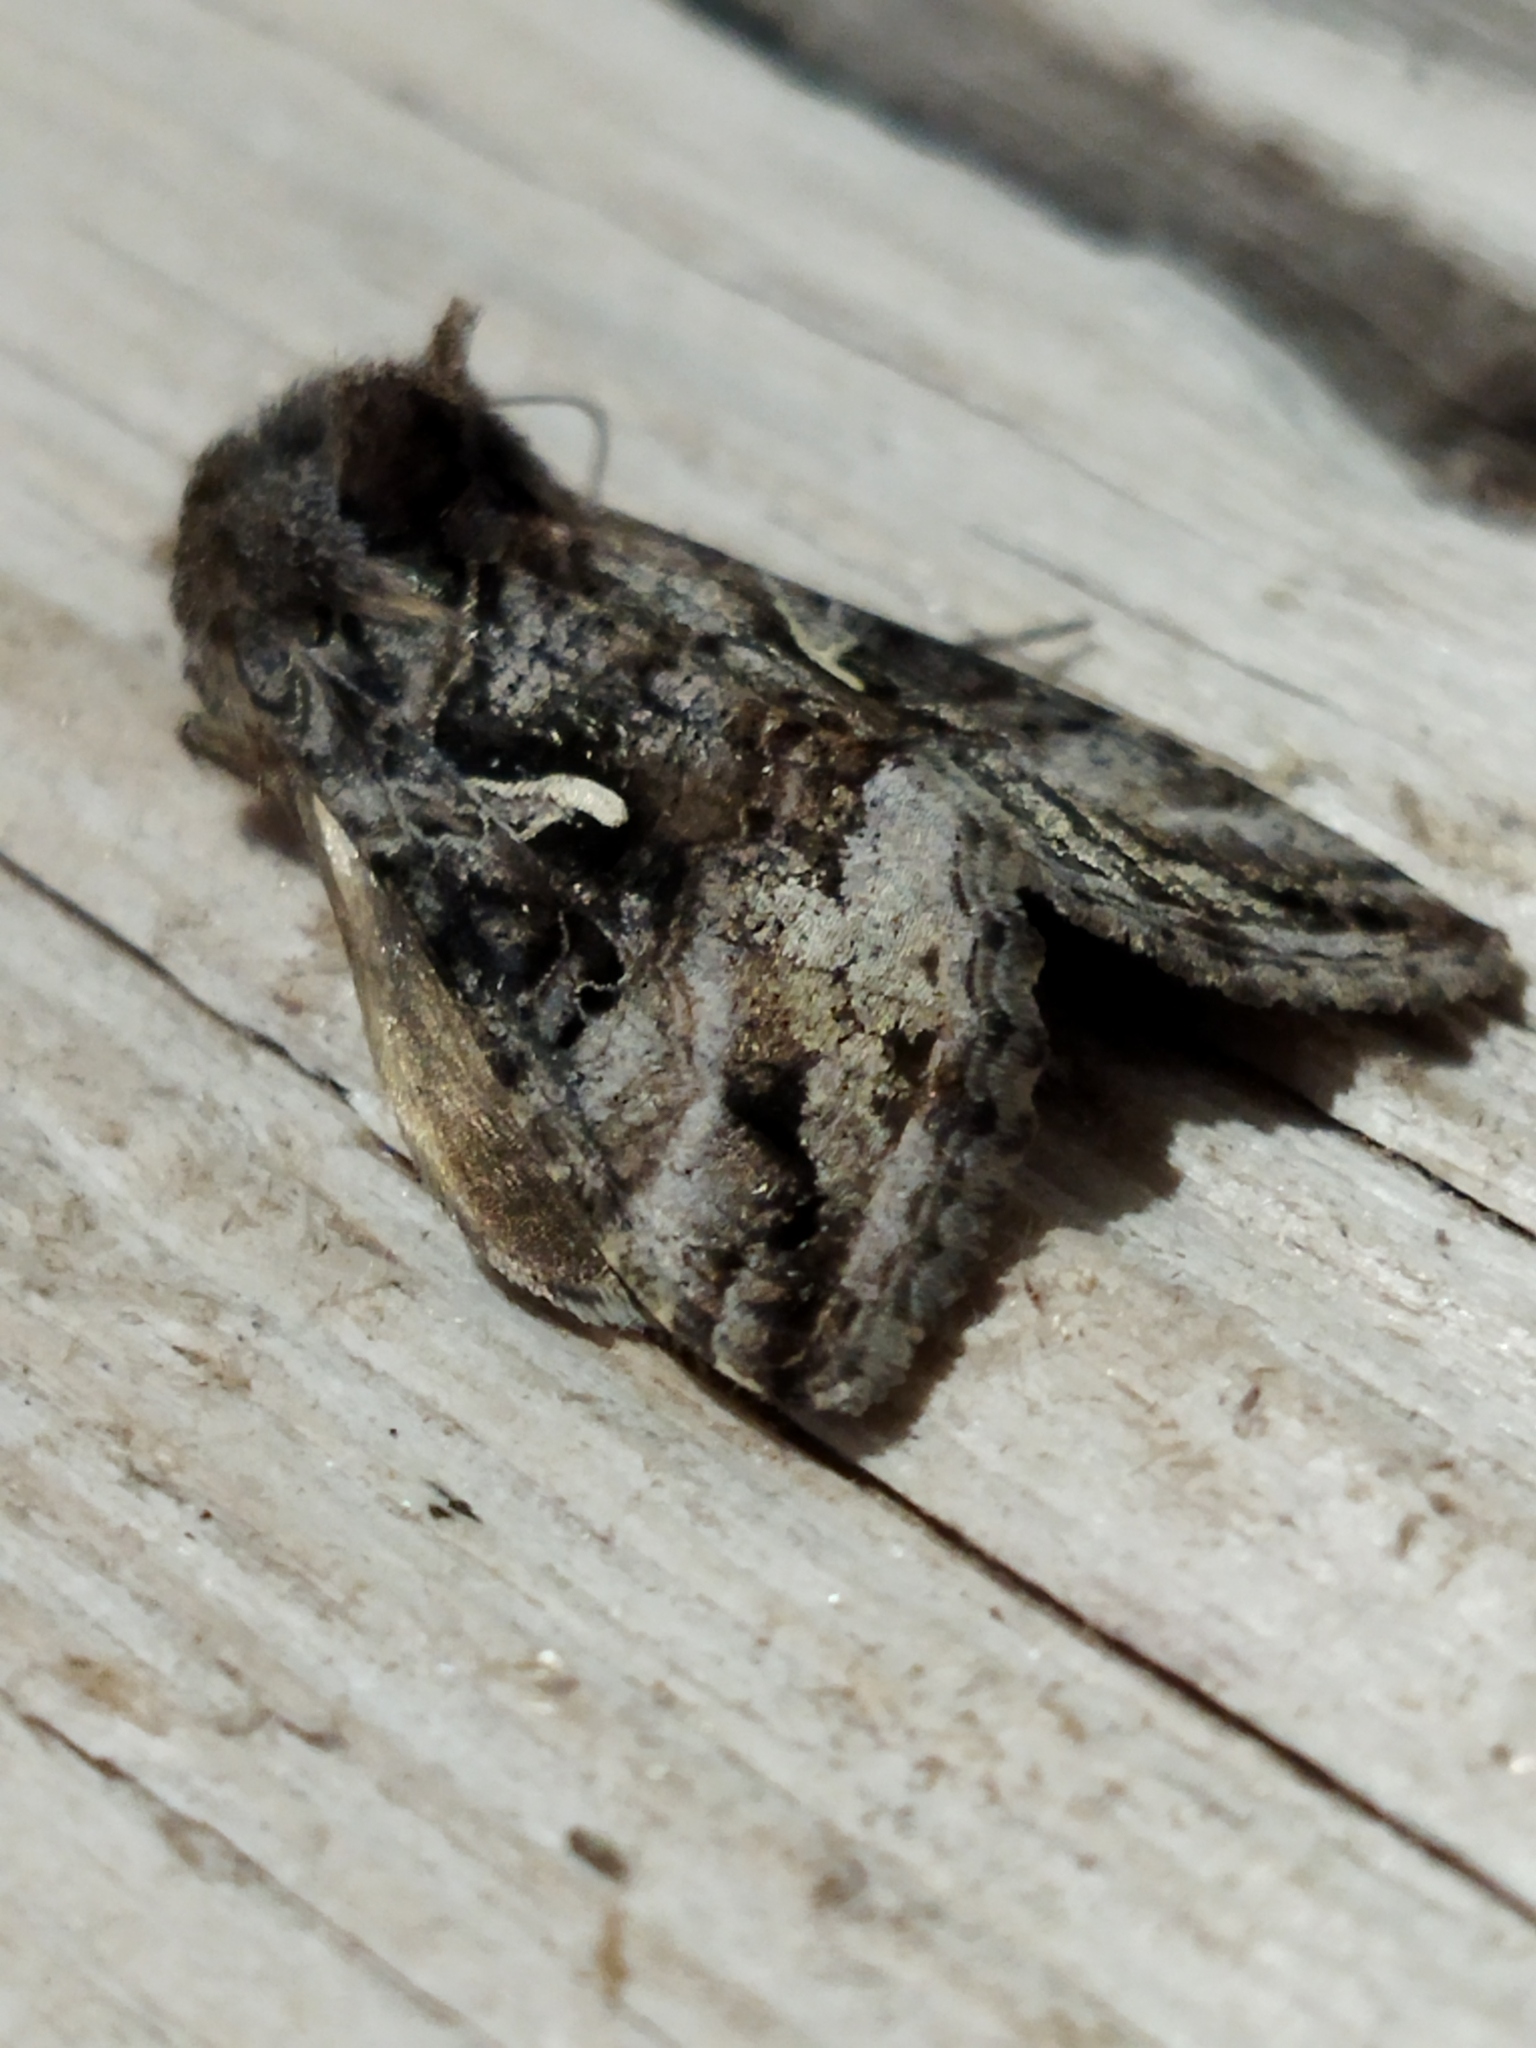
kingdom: Animalia
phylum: Arthropoda
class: Insecta
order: Lepidoptera
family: Noctuidae
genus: Autographa
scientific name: Autographa gamma
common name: Silver y
